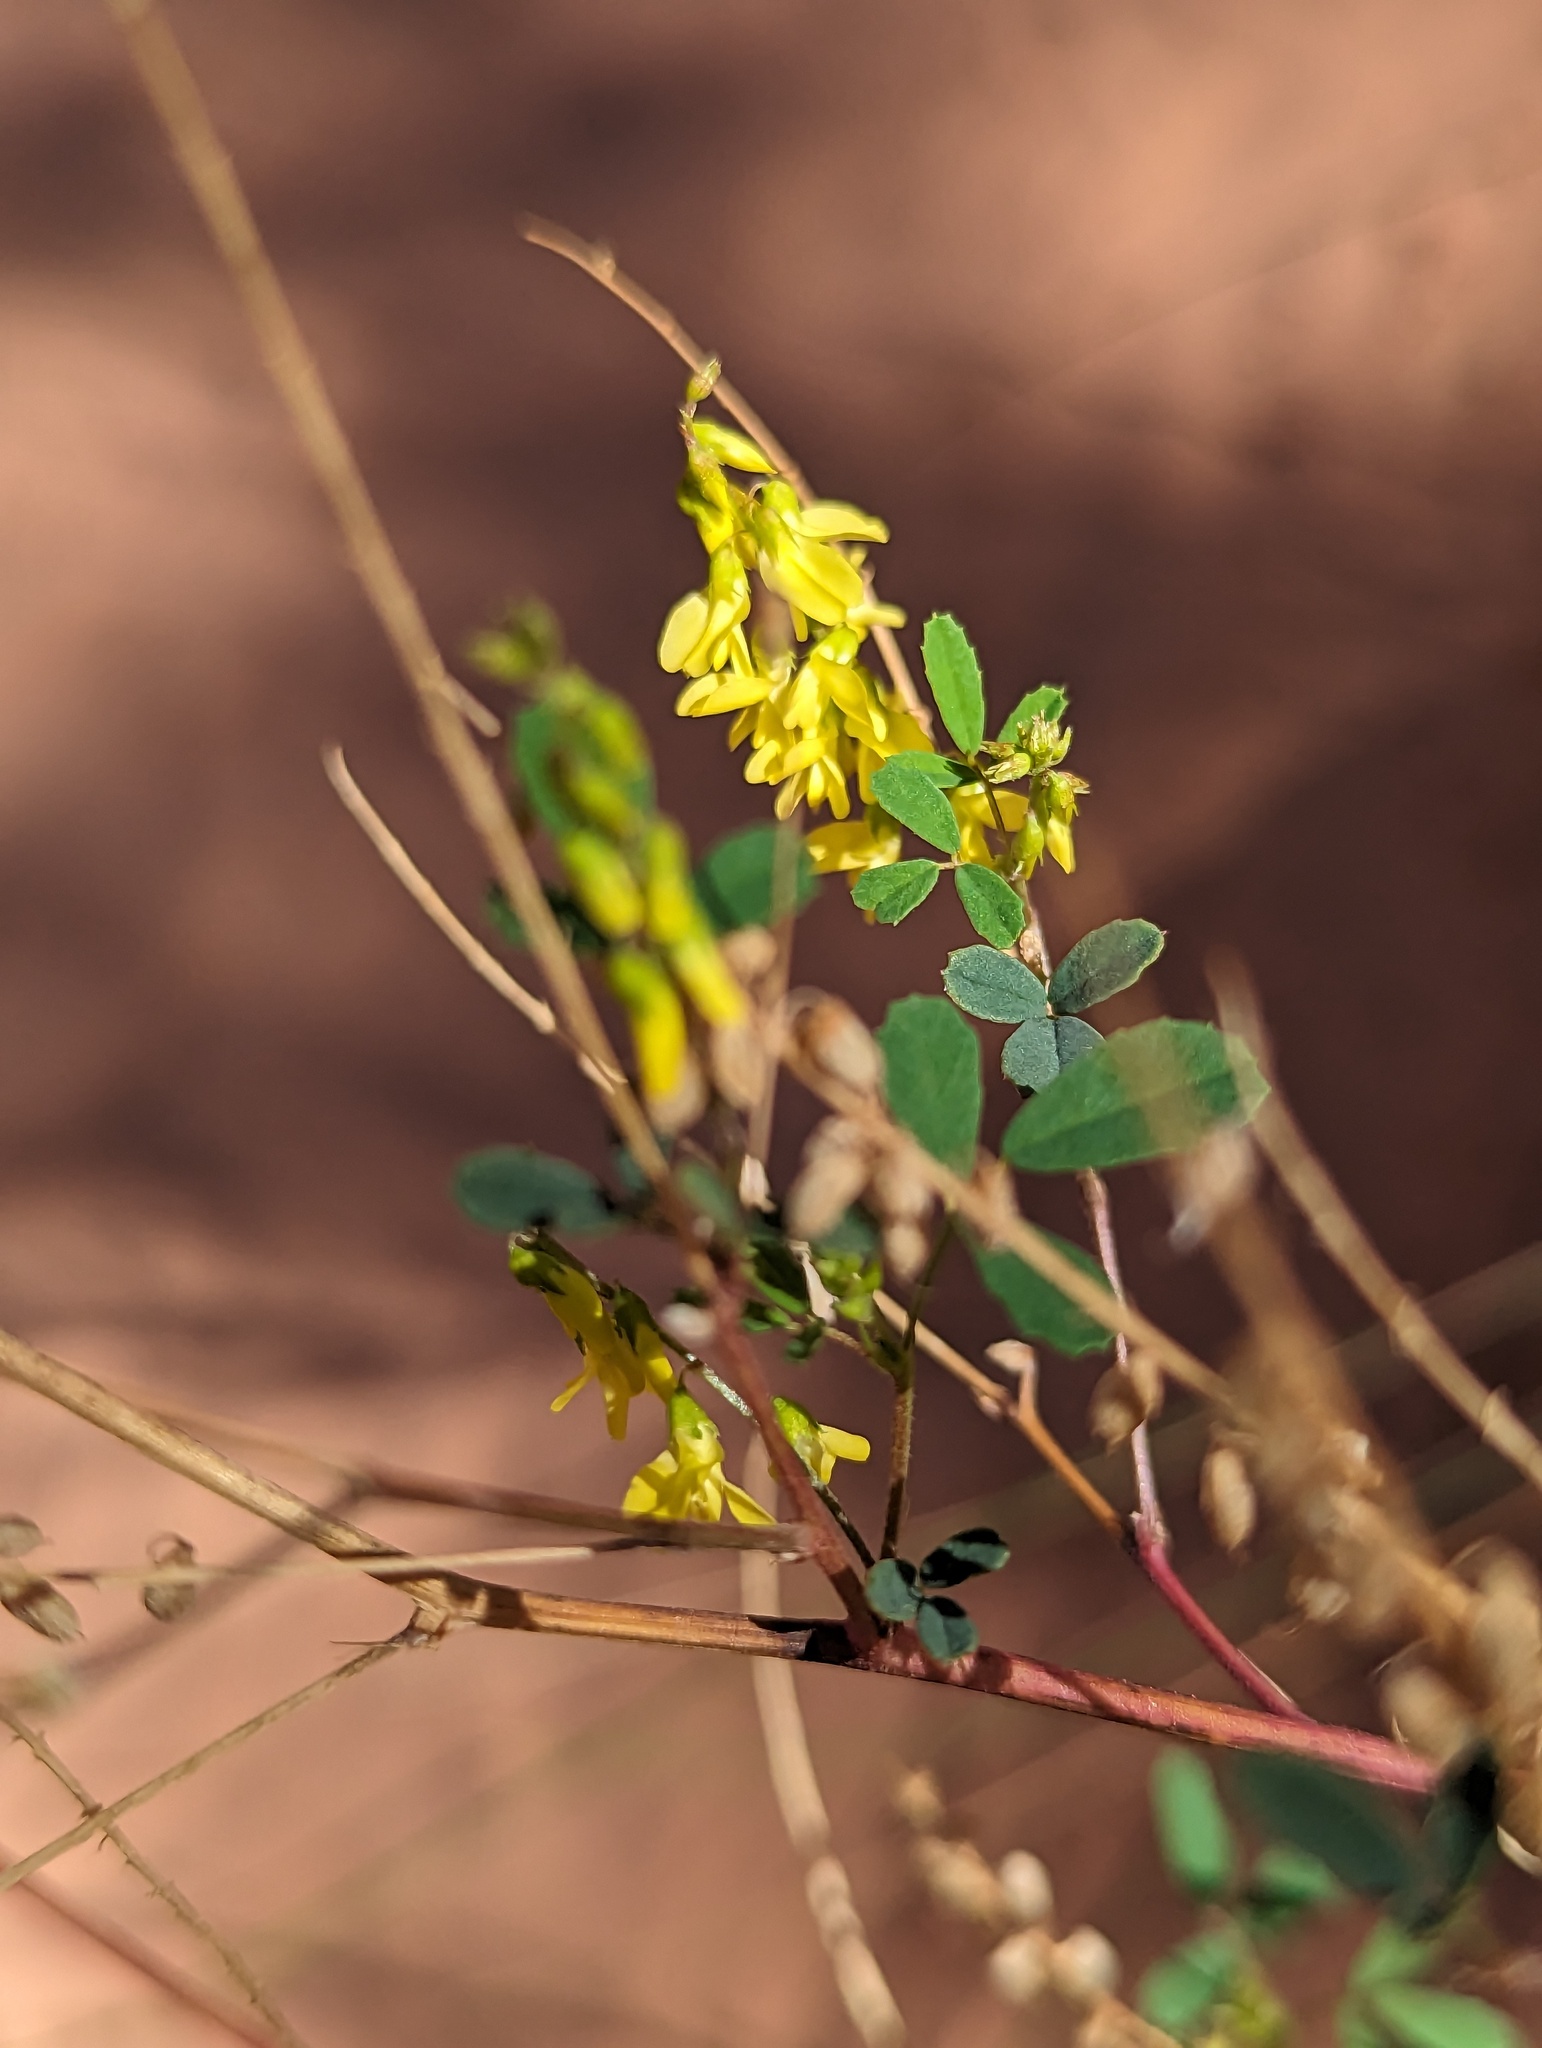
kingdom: Plantae
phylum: Tracheophyta
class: Magnoliopsida
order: Fabales
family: Fabaceae
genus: Melilotus
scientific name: Melilotus officinalis
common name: Sweetclover
